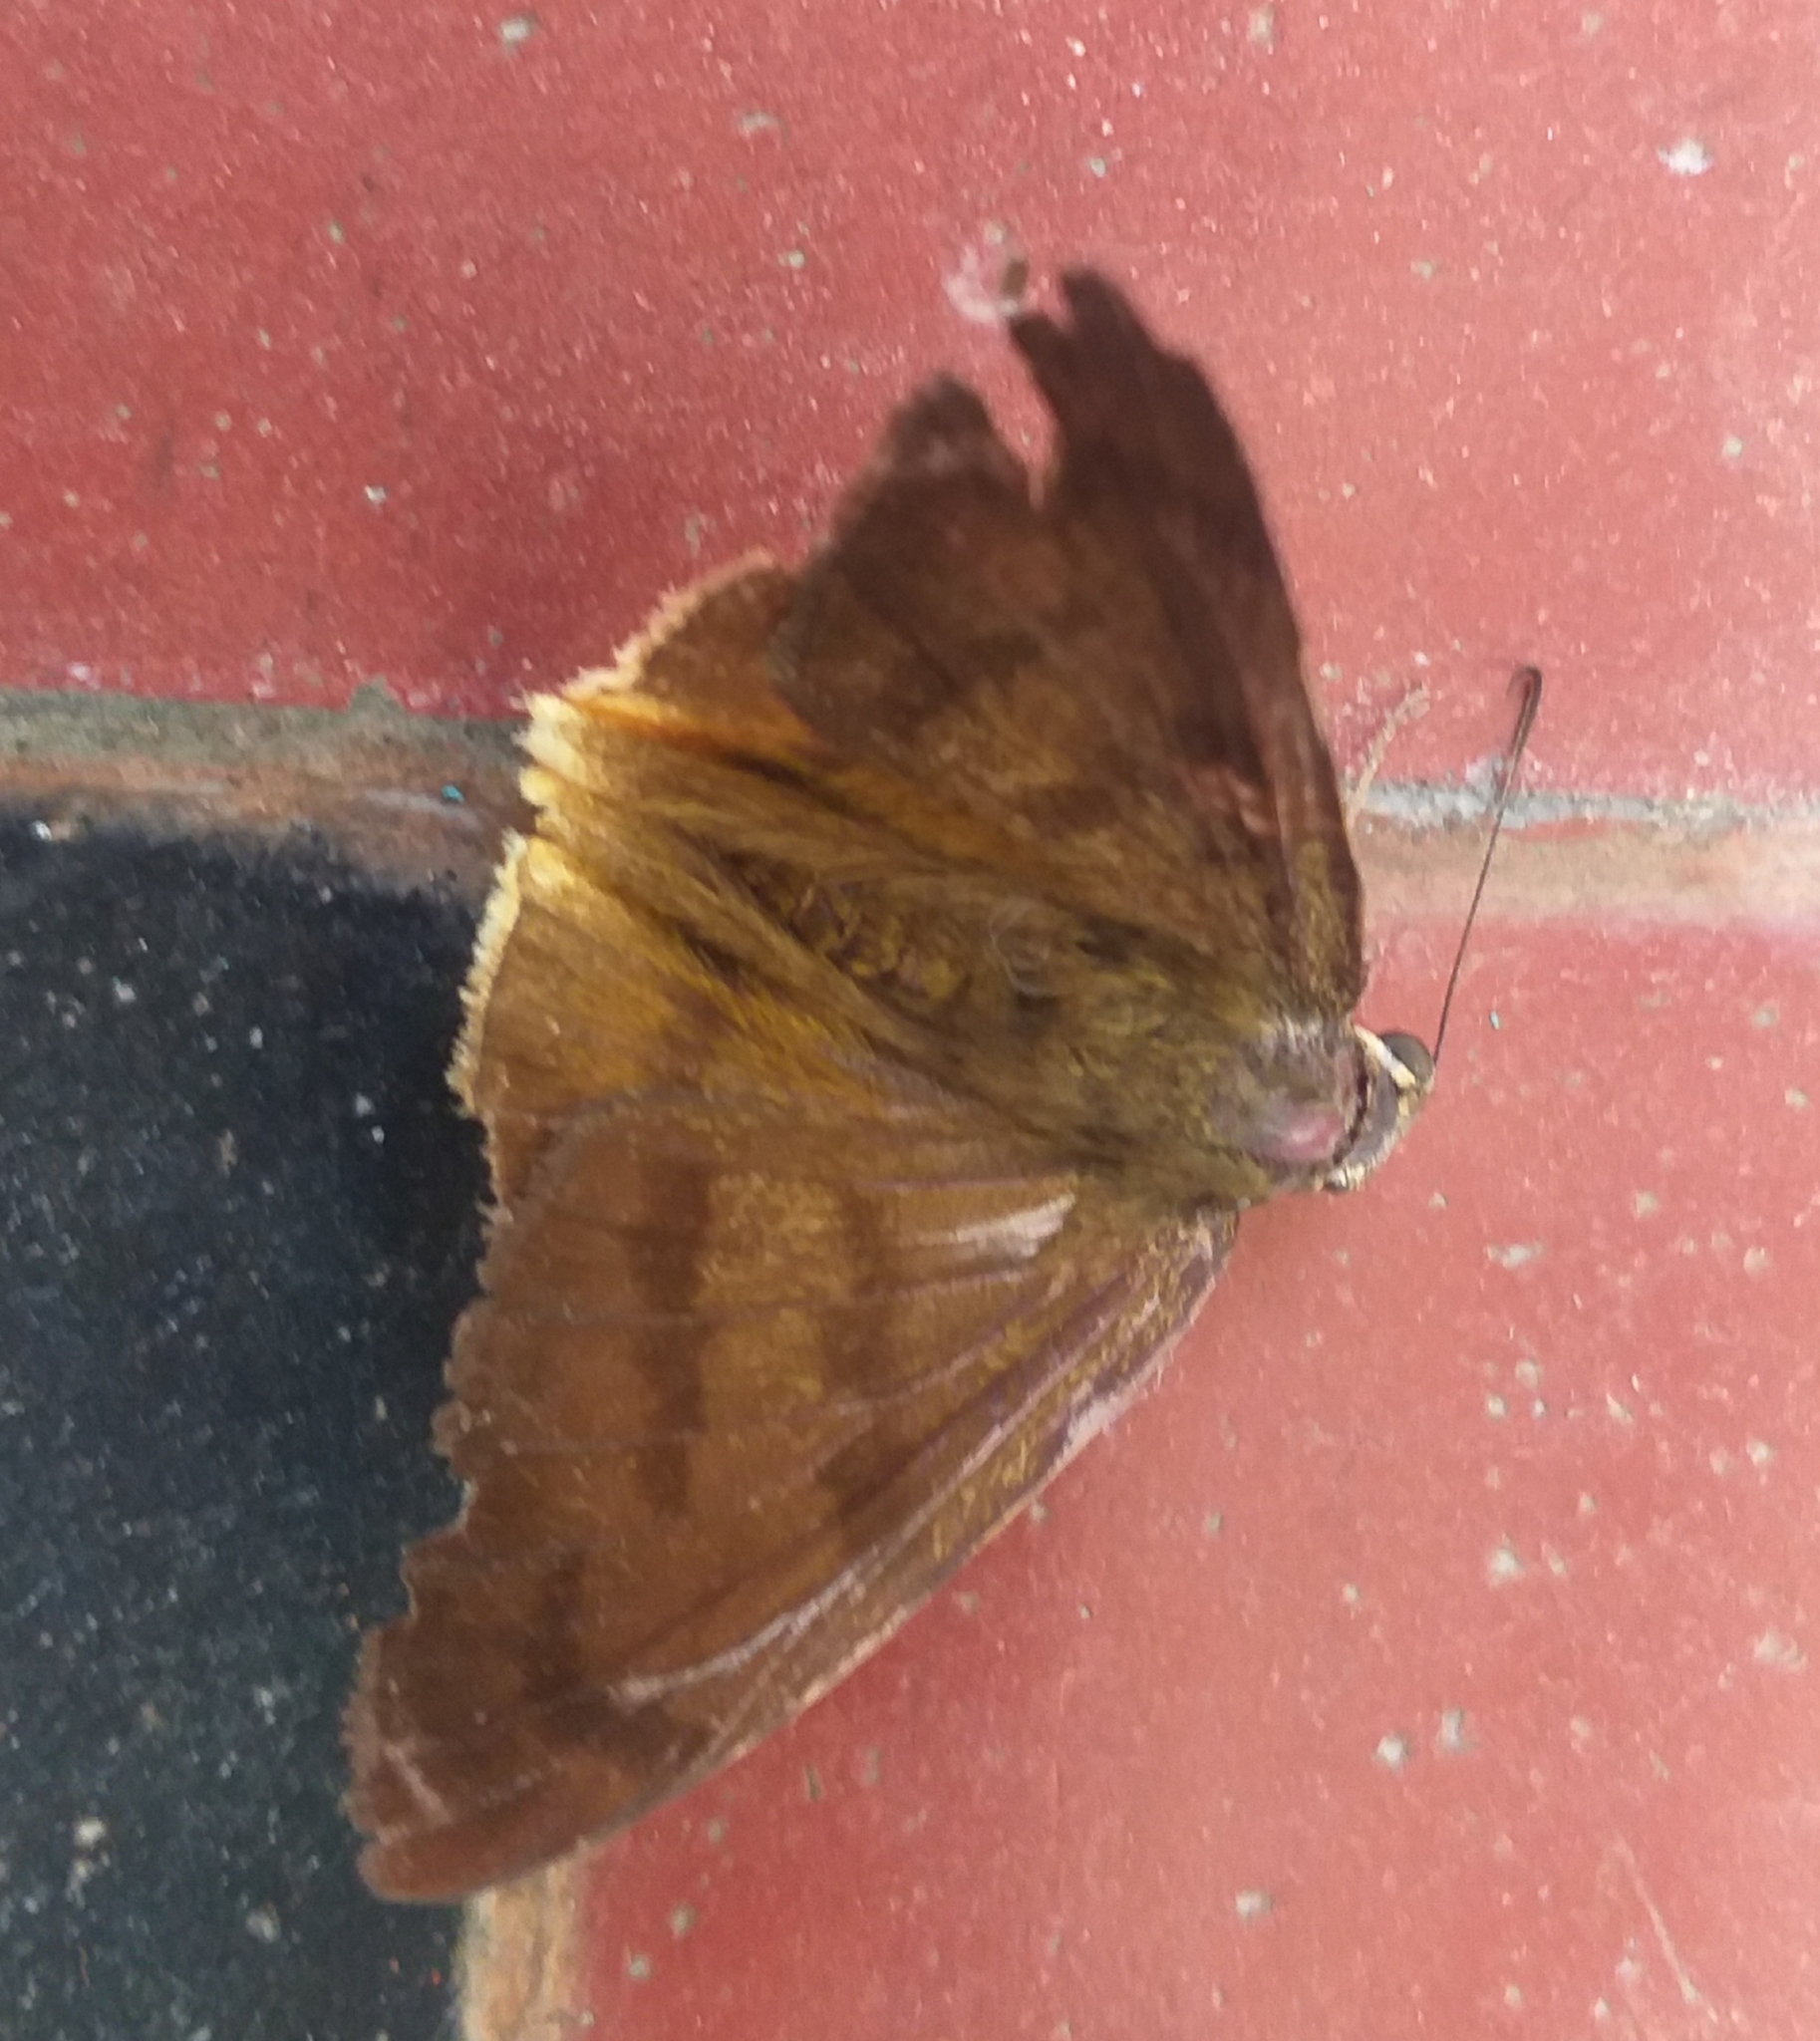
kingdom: Animalia
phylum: Arthropoda
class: Insecta
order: Lepidoptera
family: Hesperiidae
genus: Astraptes
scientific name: Astraptes anaphus
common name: Yellow-tipped flasher
